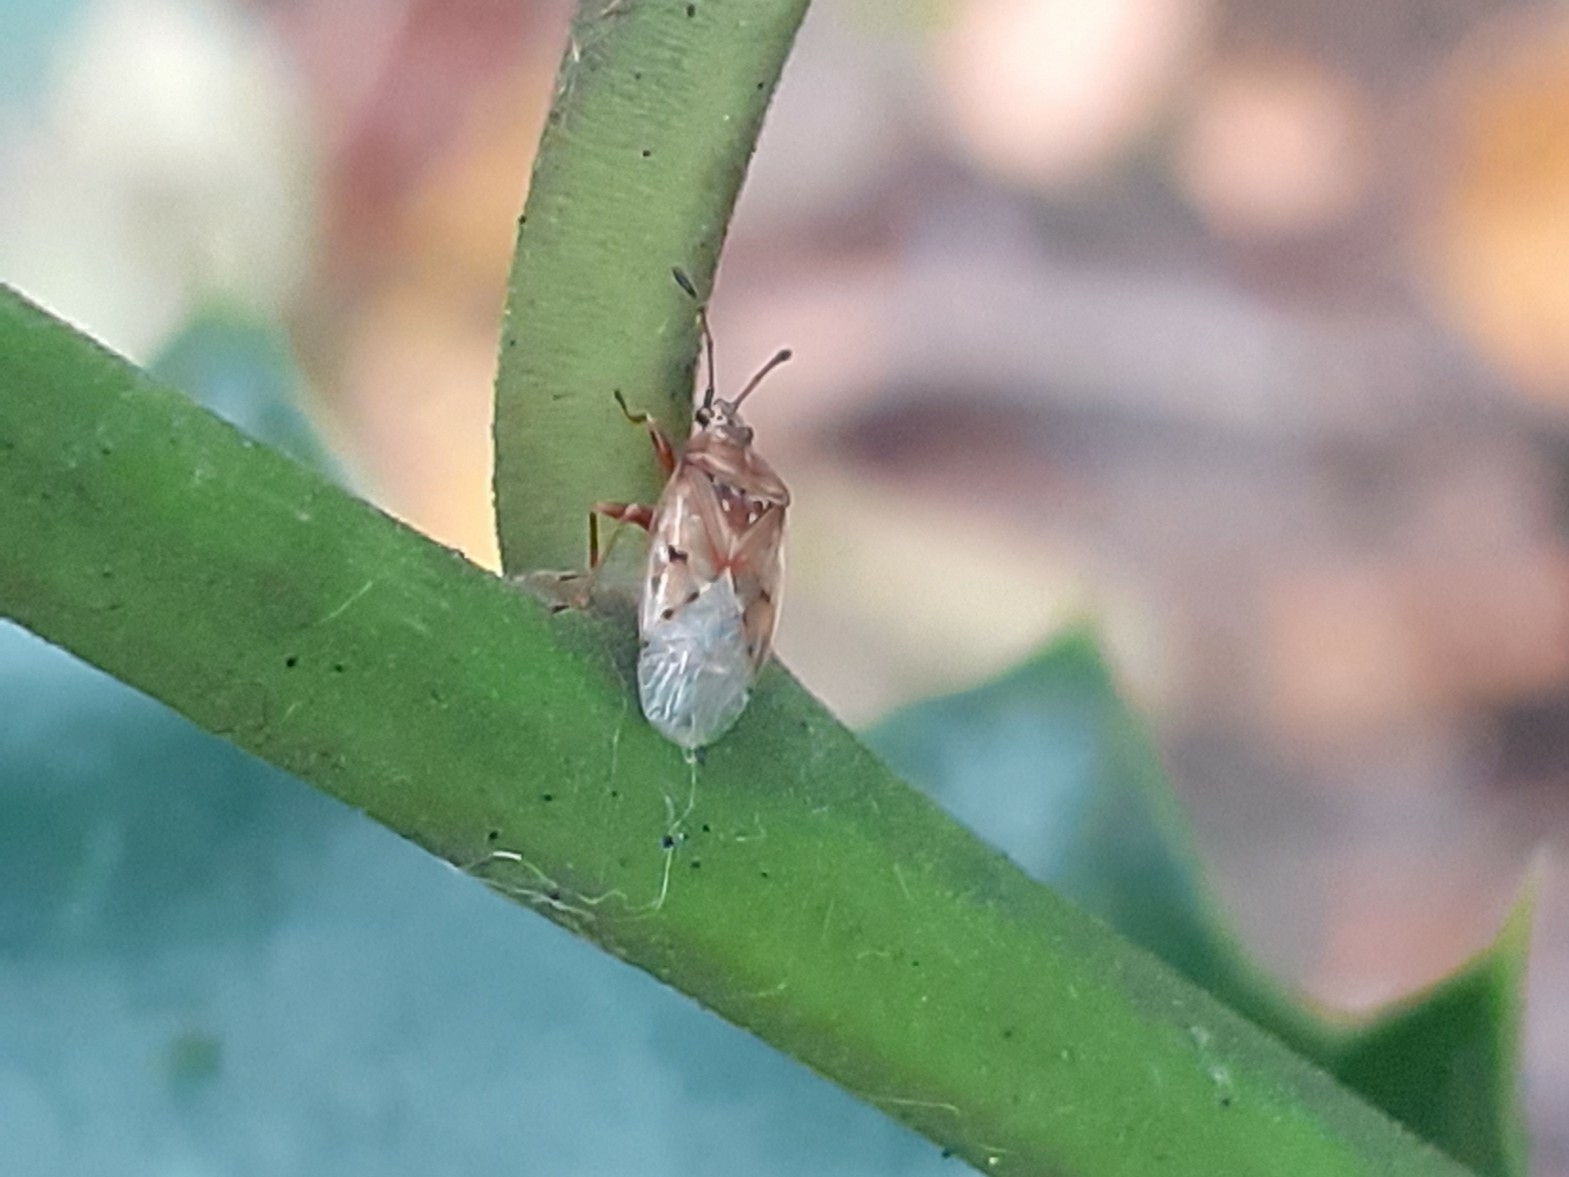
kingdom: Animalia
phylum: Arthropoda
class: Insecta
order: Hemiptera
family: Lygaeidae
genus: Kleidocerys
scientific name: Kleidocerys resedae
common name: Birch catkin bug
